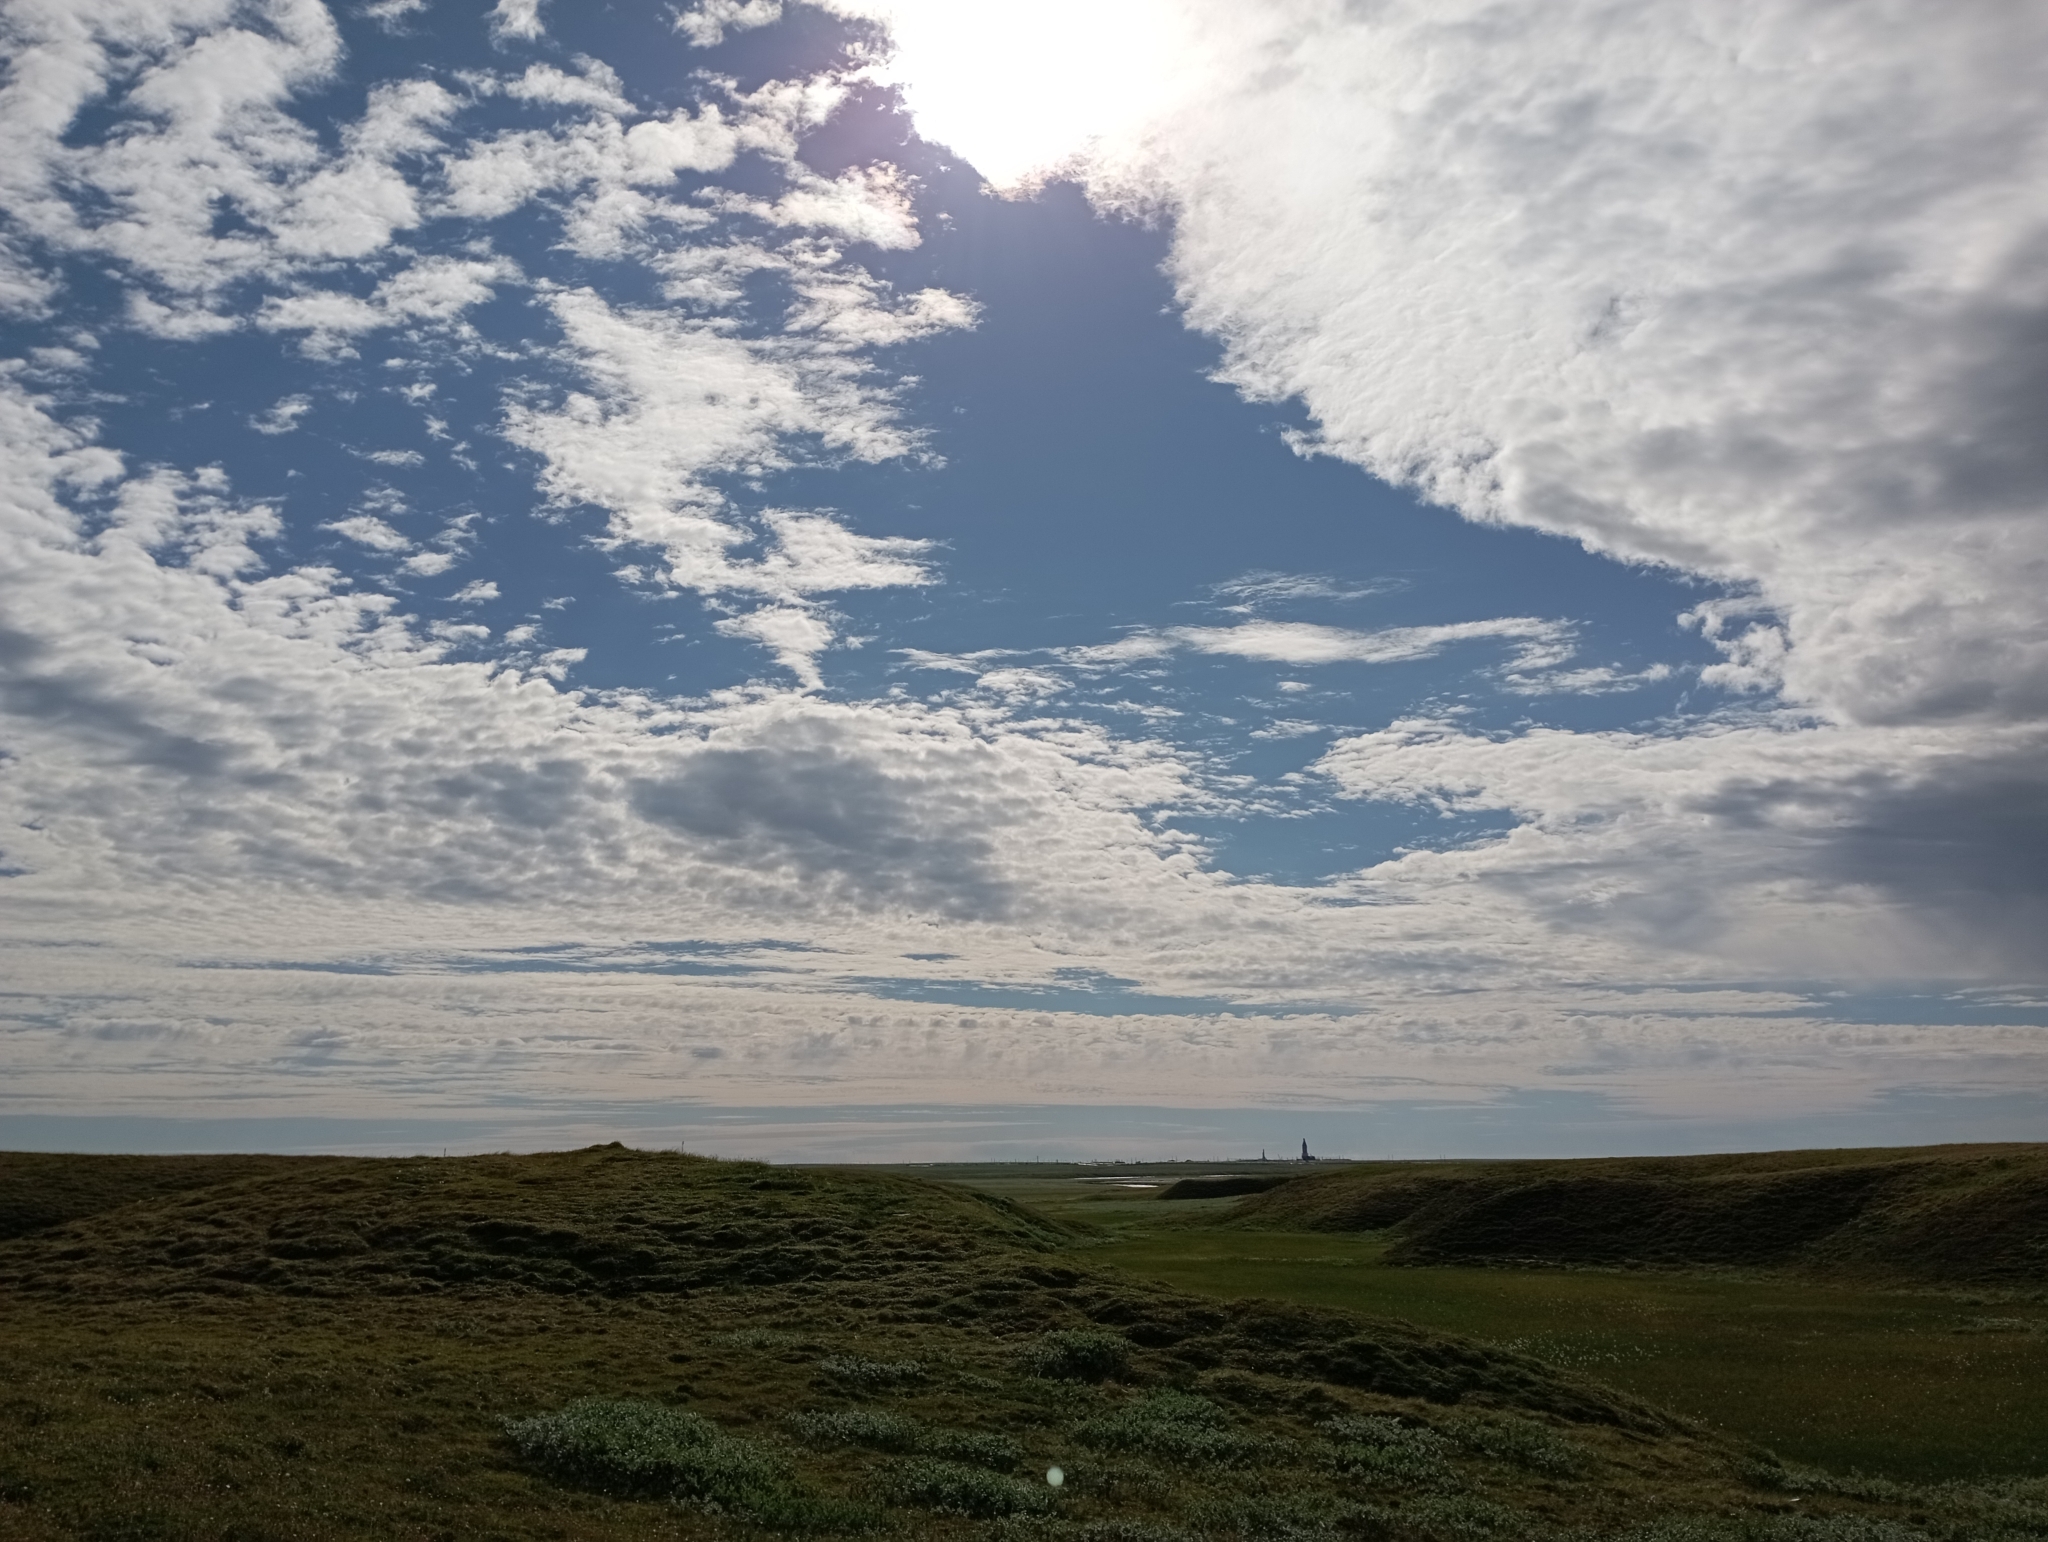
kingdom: Plantae
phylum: Tracheophyta
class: Magnoliopsida
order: Rosales
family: Rosaceae
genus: Dryas
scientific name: Dryas octopetala
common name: Eight-petal mountain-avens
